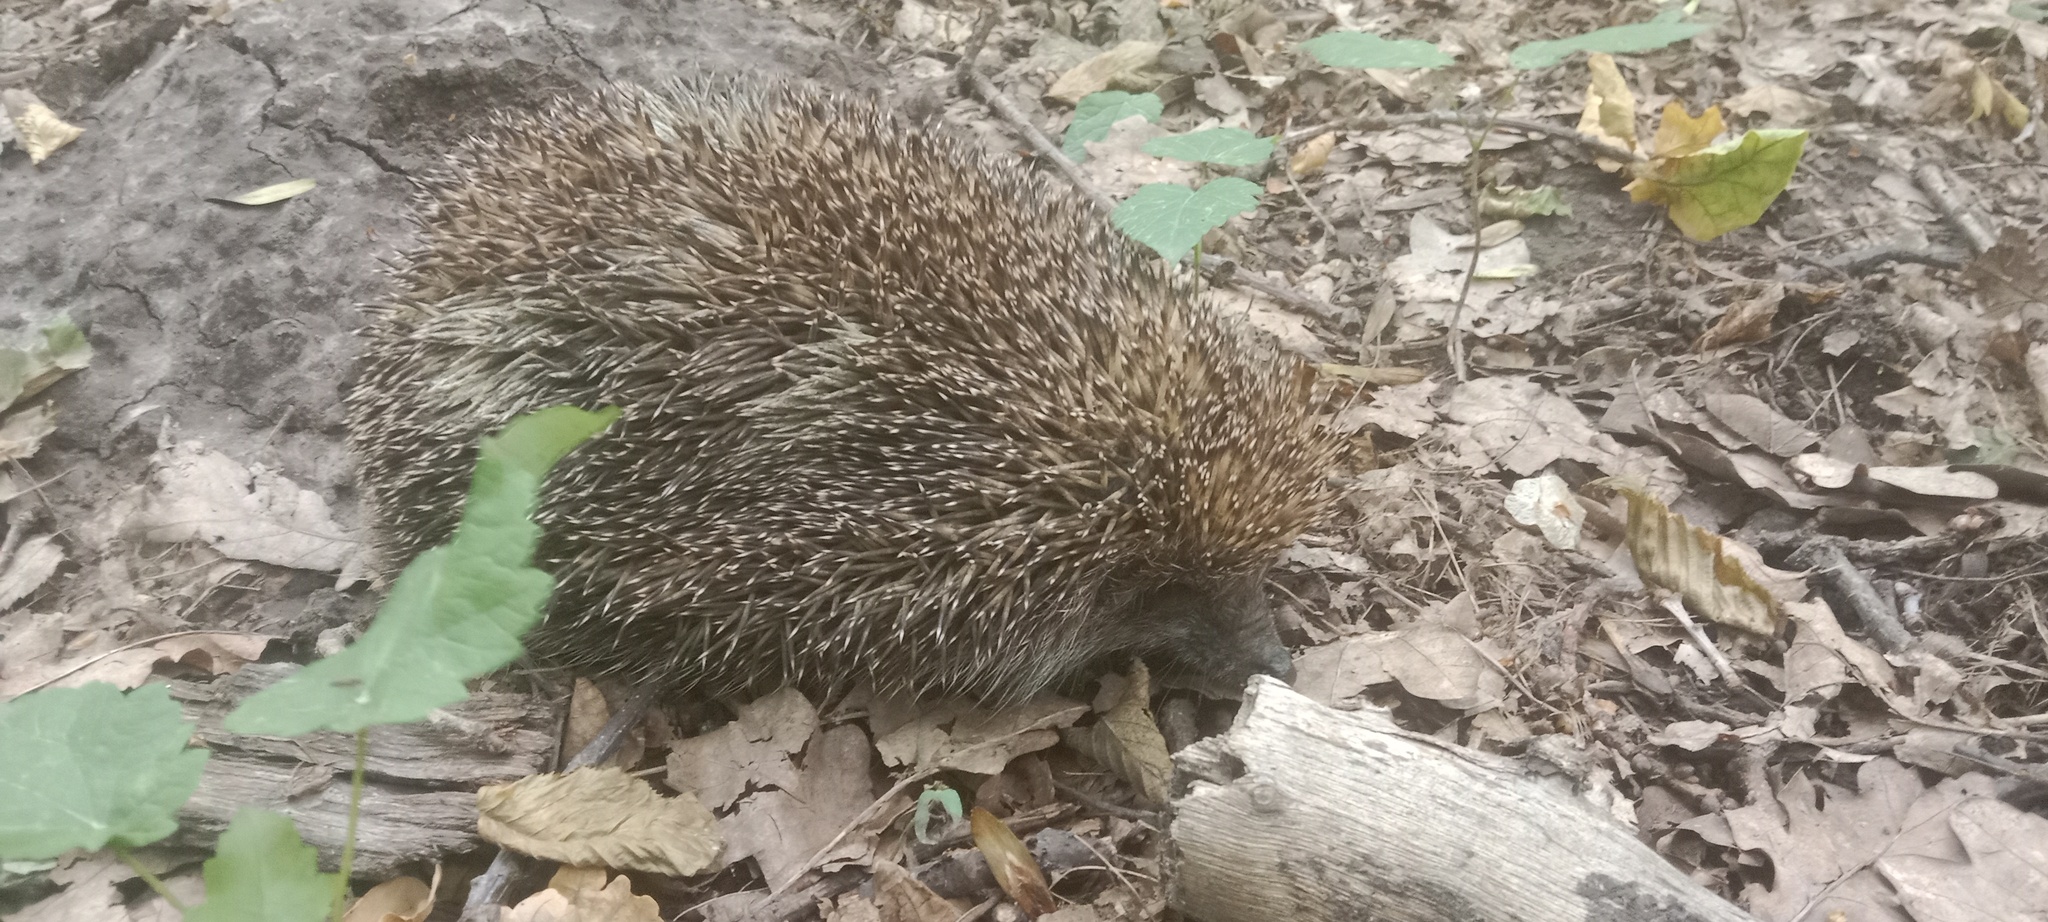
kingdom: Animalia
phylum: Chordata
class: Mammalia
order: Erinaceomorpha
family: Erinaceidae
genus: Erinaceus
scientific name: Erinaceus roumanicus
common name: Northern white-breasted hedgehog
